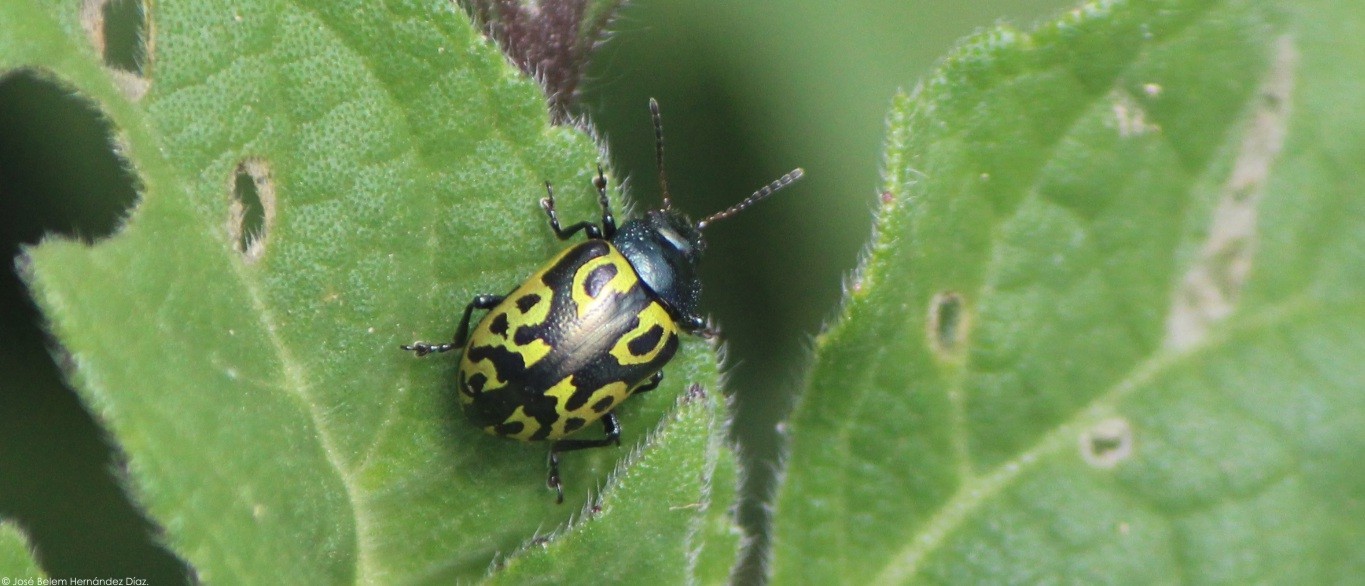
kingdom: Animalia
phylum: Arthropoda
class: Insecta
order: Coleoptera
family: Chrysomelidae
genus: Calligrapha
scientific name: Calligrapha
